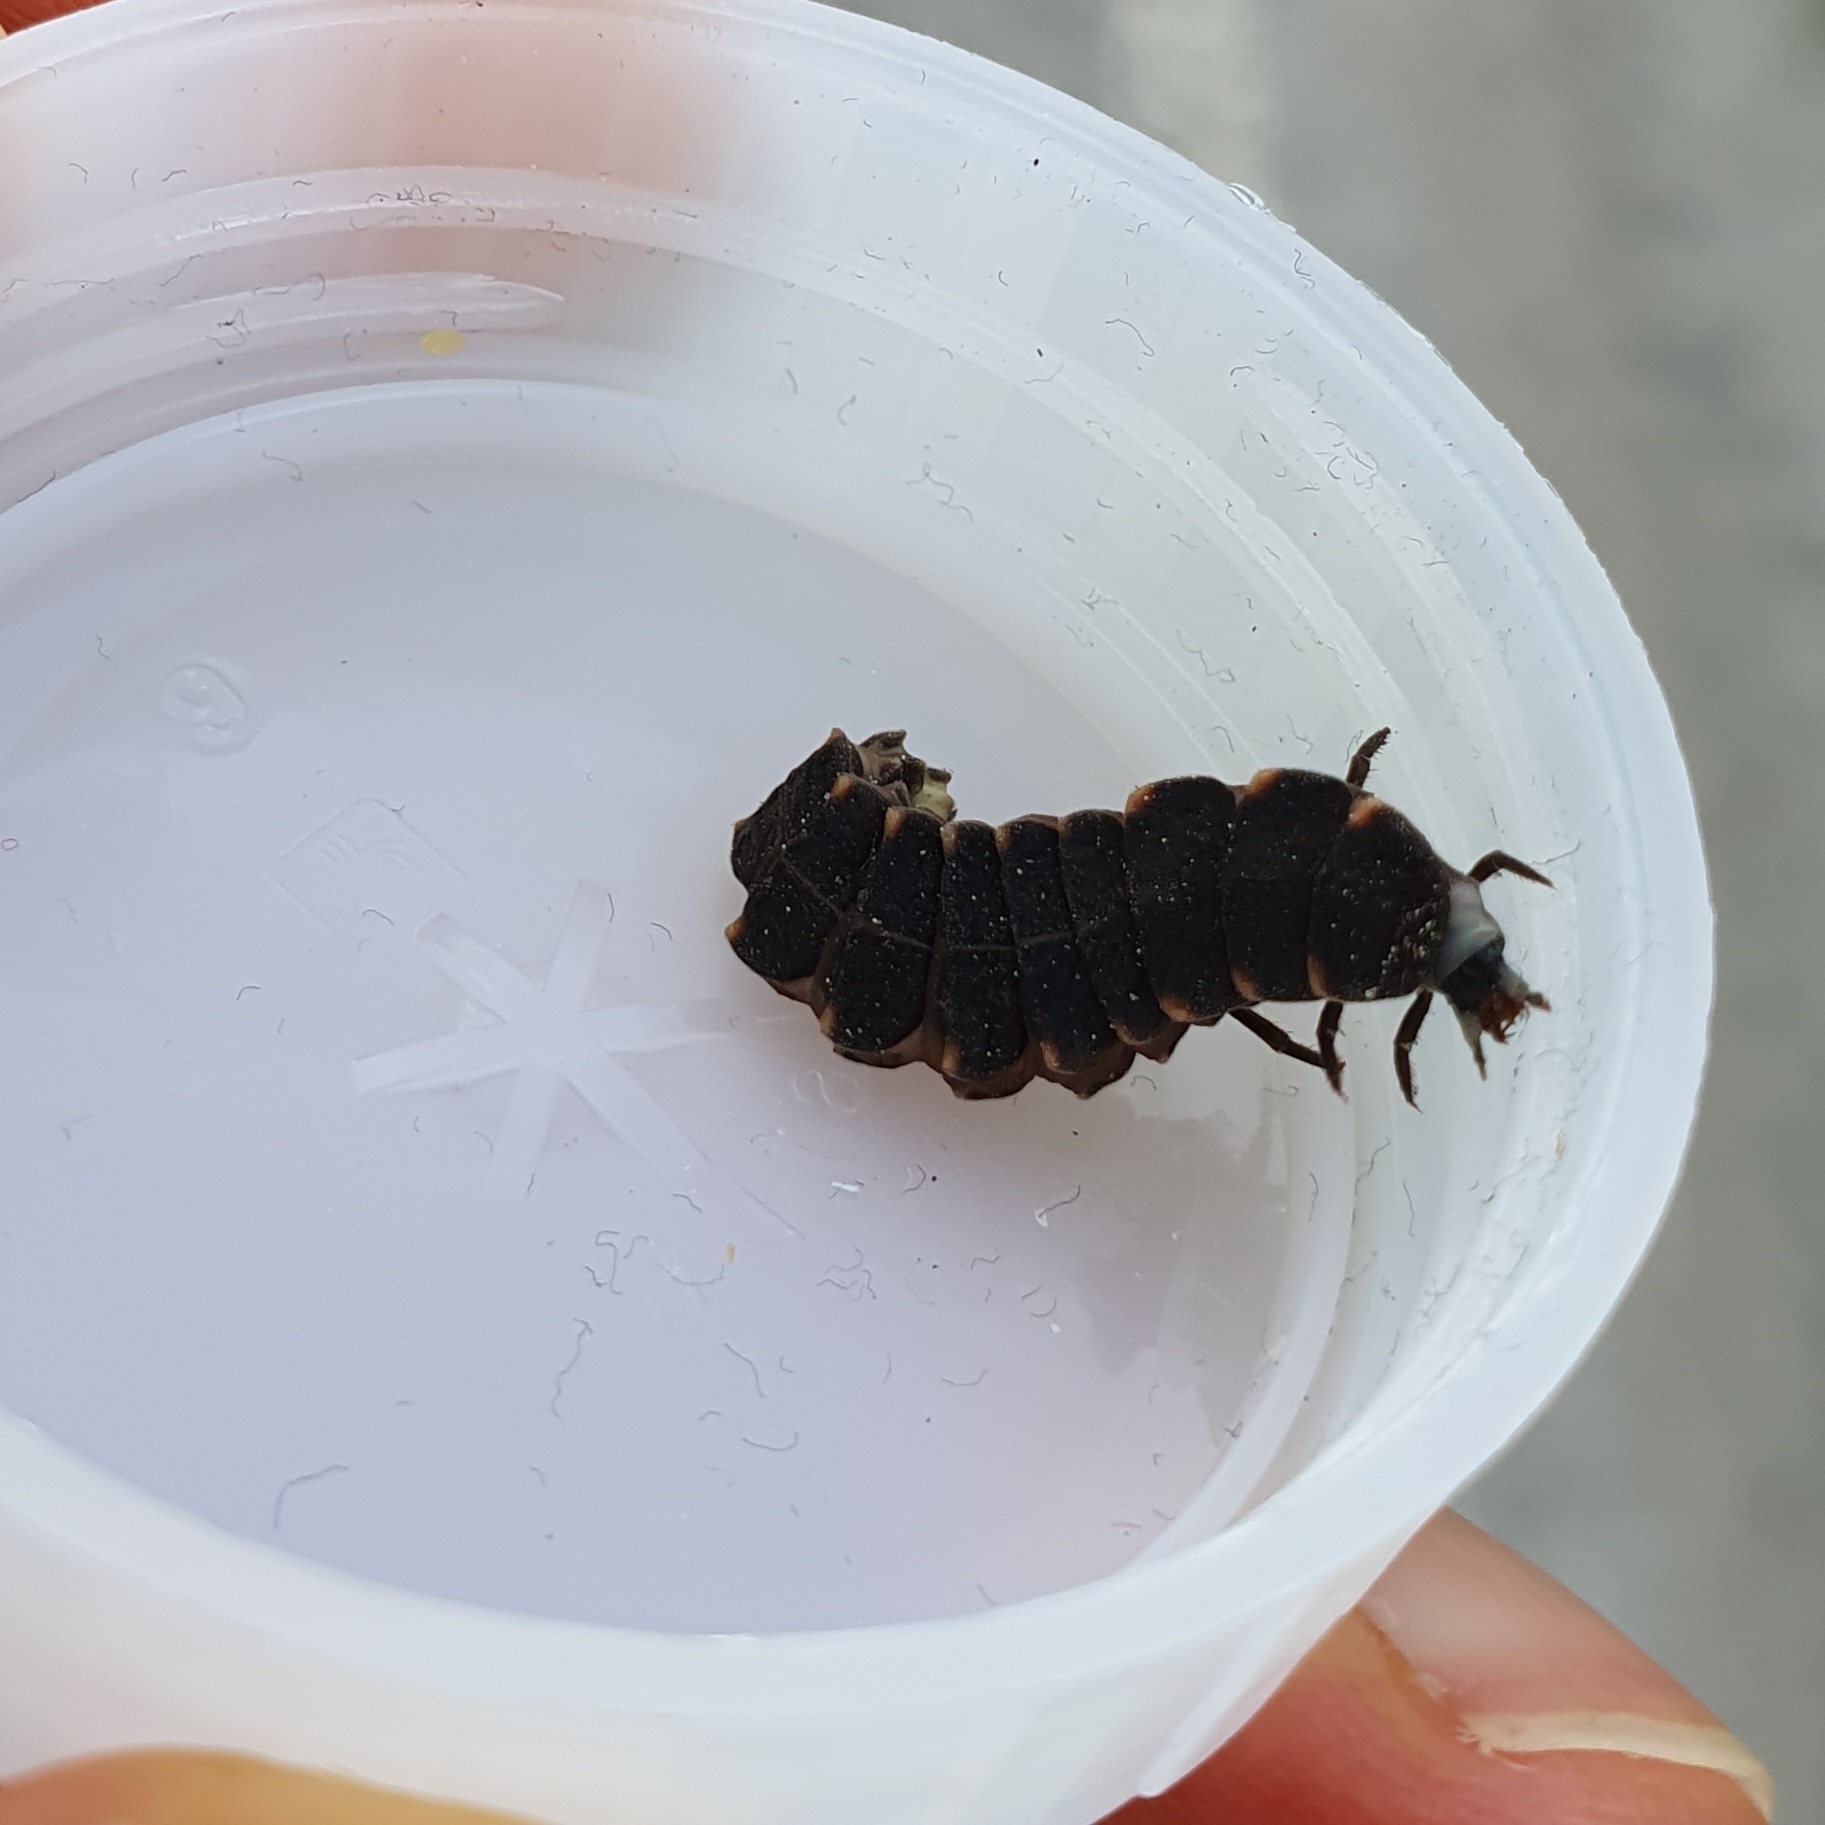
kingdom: Animalia
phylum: Arthropoda
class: Insecta
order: Coleoptera
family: Lampyridae
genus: Lampyris
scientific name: Lampyris noctiluca
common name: Glow-worm
